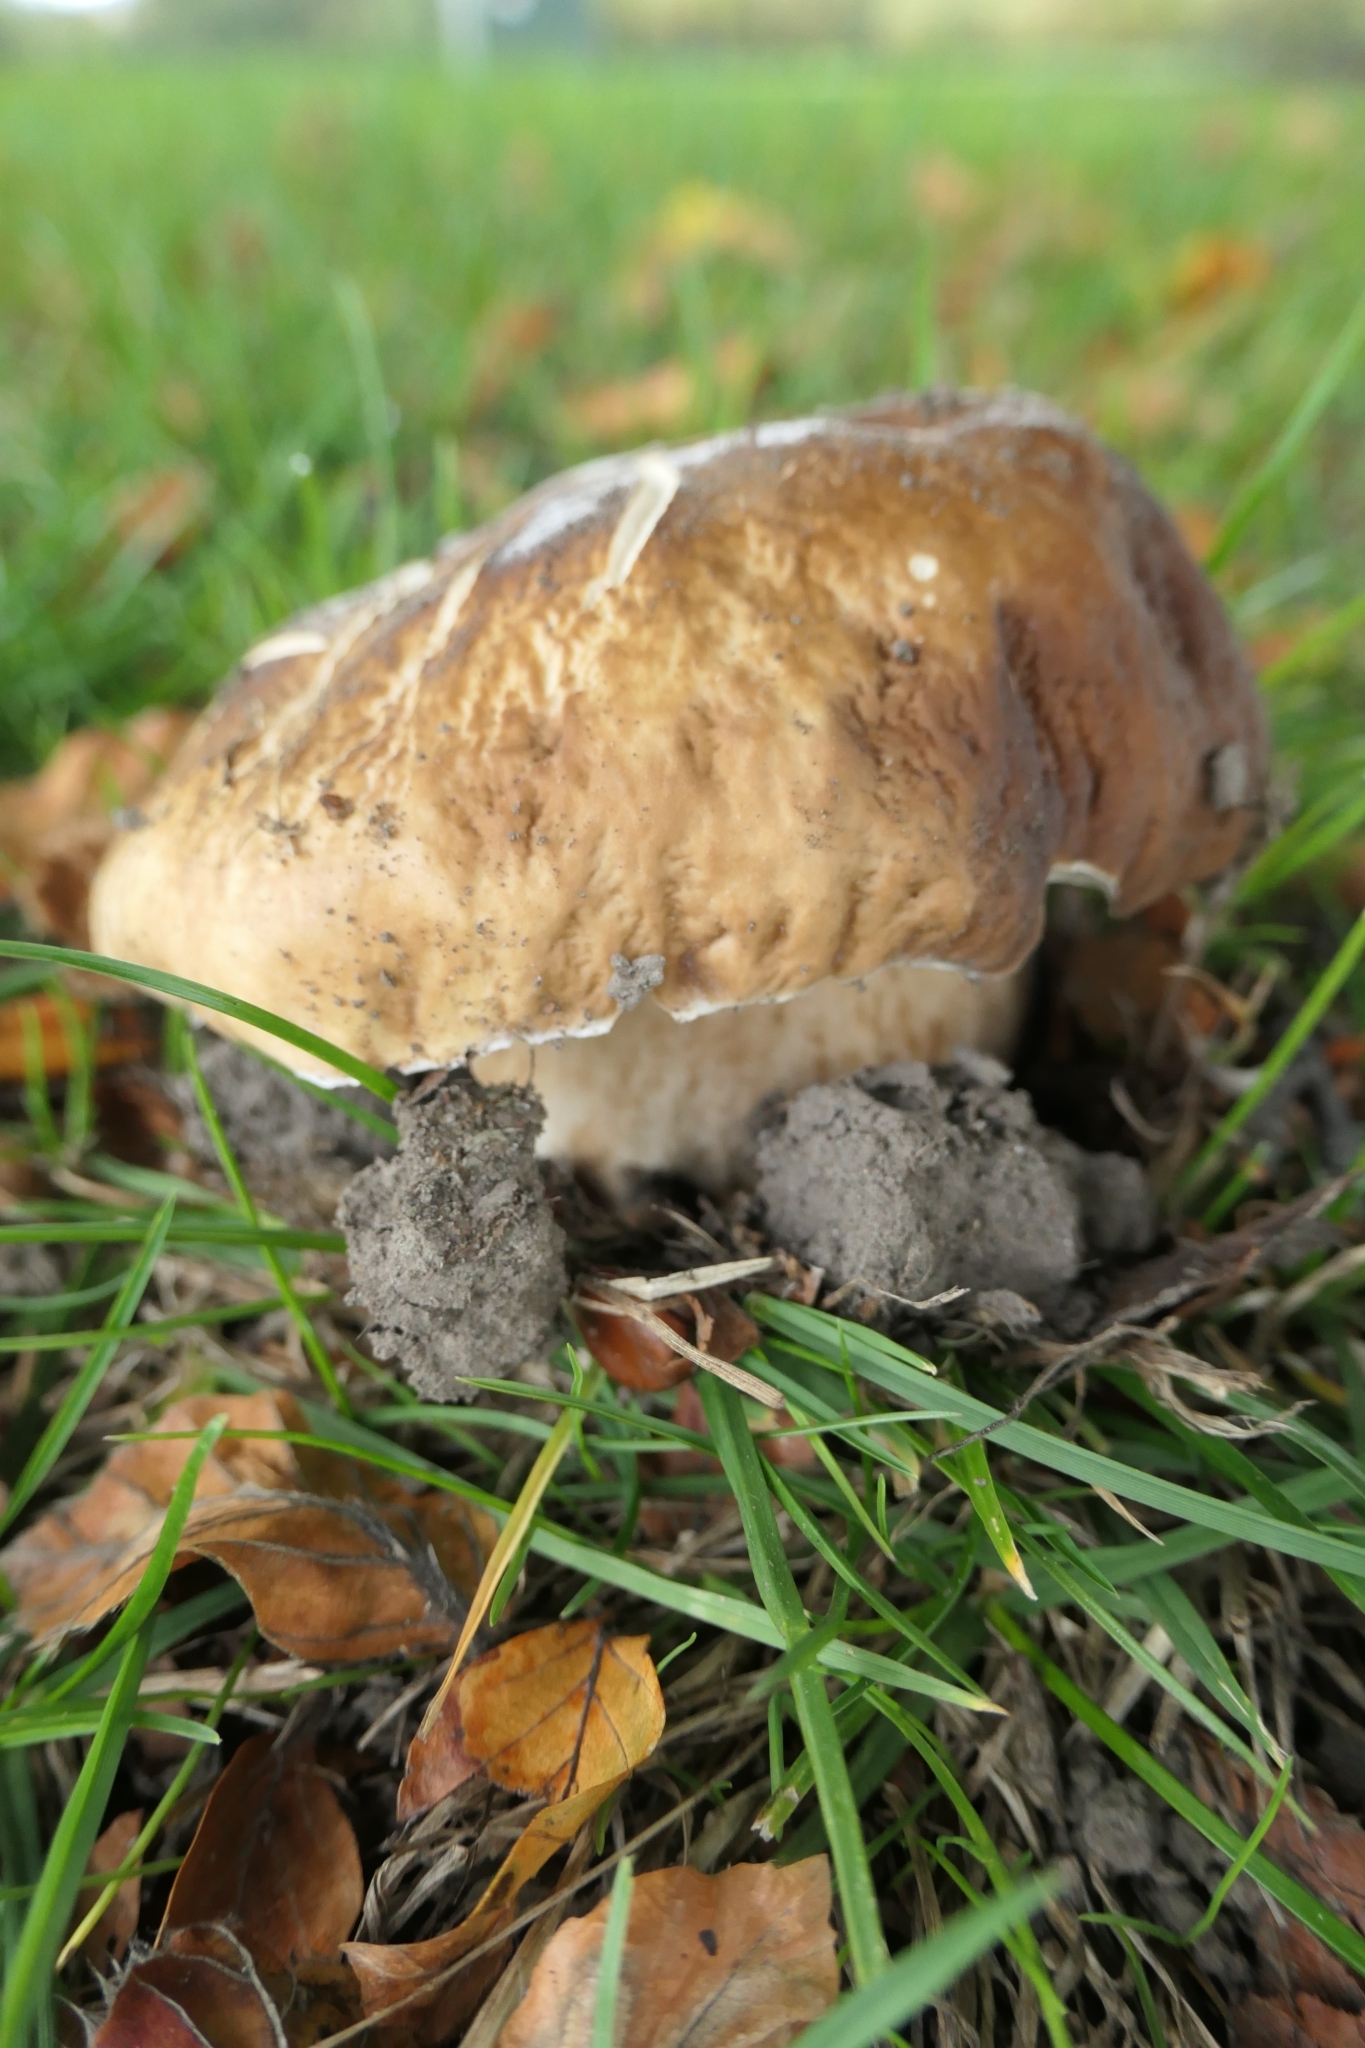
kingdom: Fungi
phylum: Basidiomycota
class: Agaricomycetes
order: Boletales
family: Boletaceae
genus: Boletus
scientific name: Boletus edulis
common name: Cep
